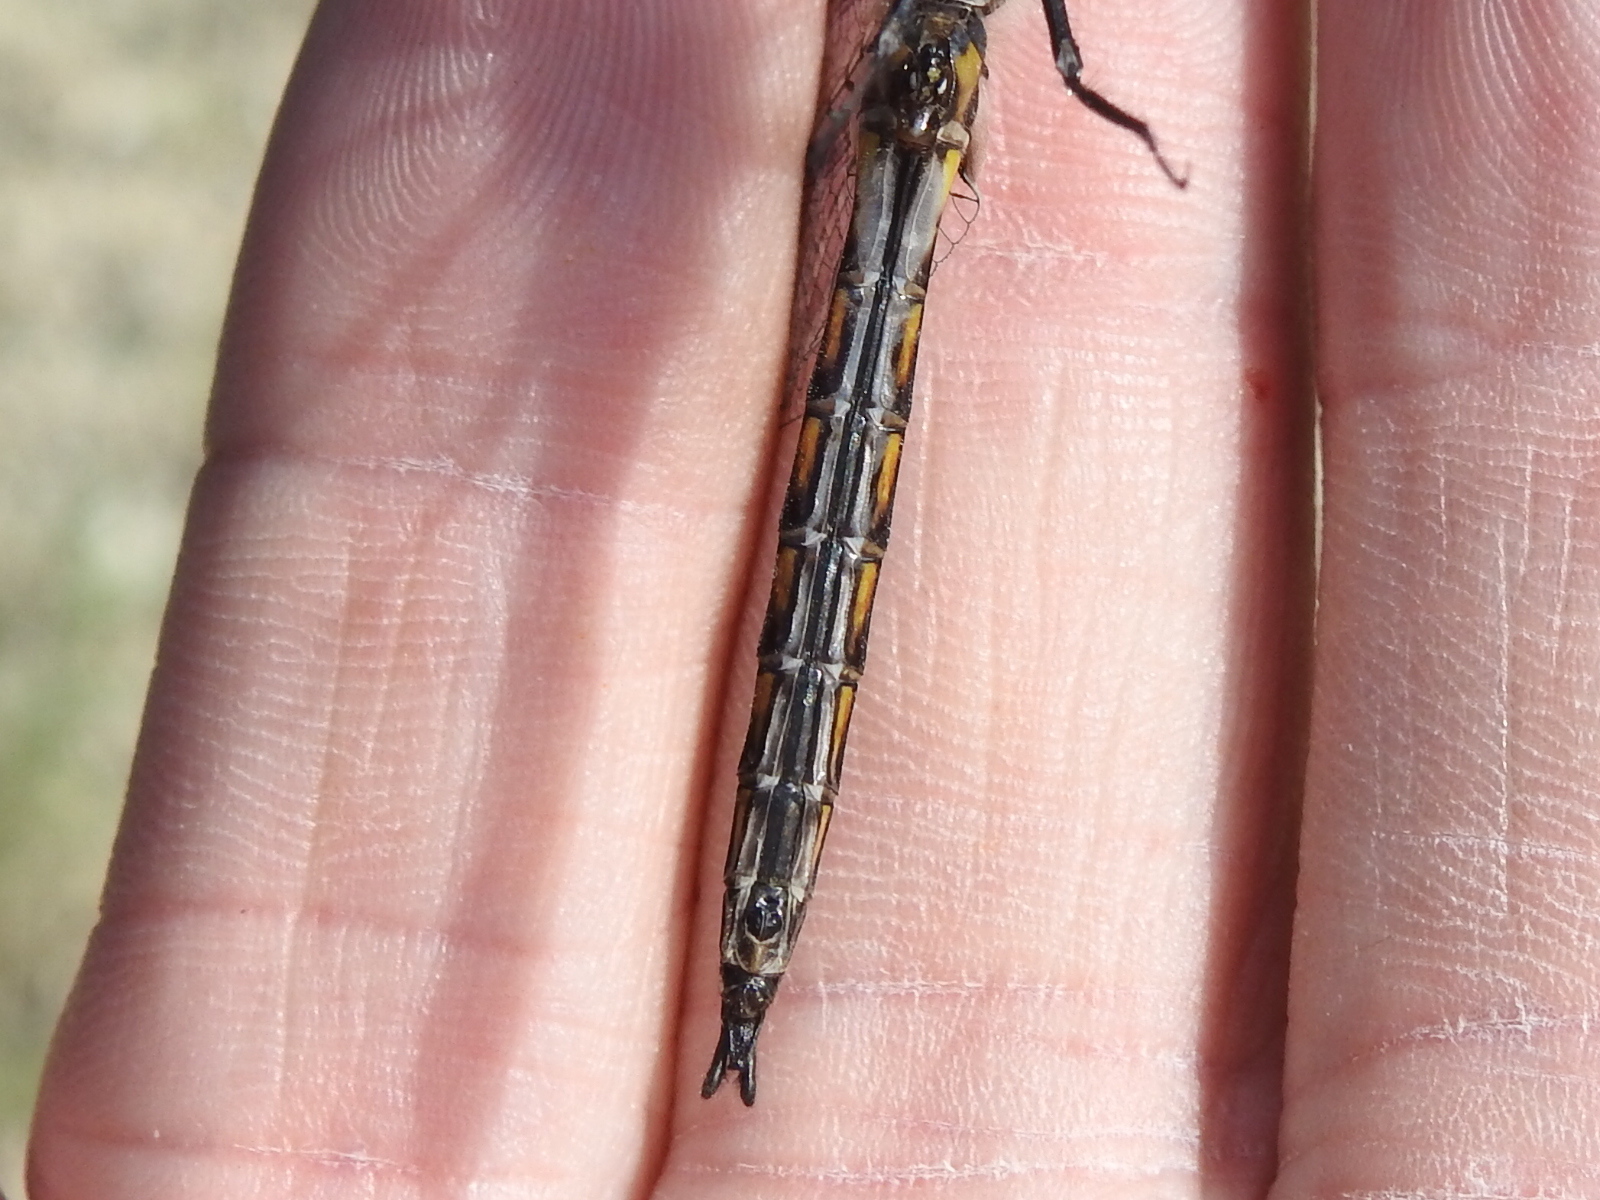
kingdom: Animalia
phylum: Arthropoda
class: Insecta
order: Odonata
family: Corduliidae
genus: Epitheca
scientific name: Epitheca petechialis
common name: Dot-winged baskettail
